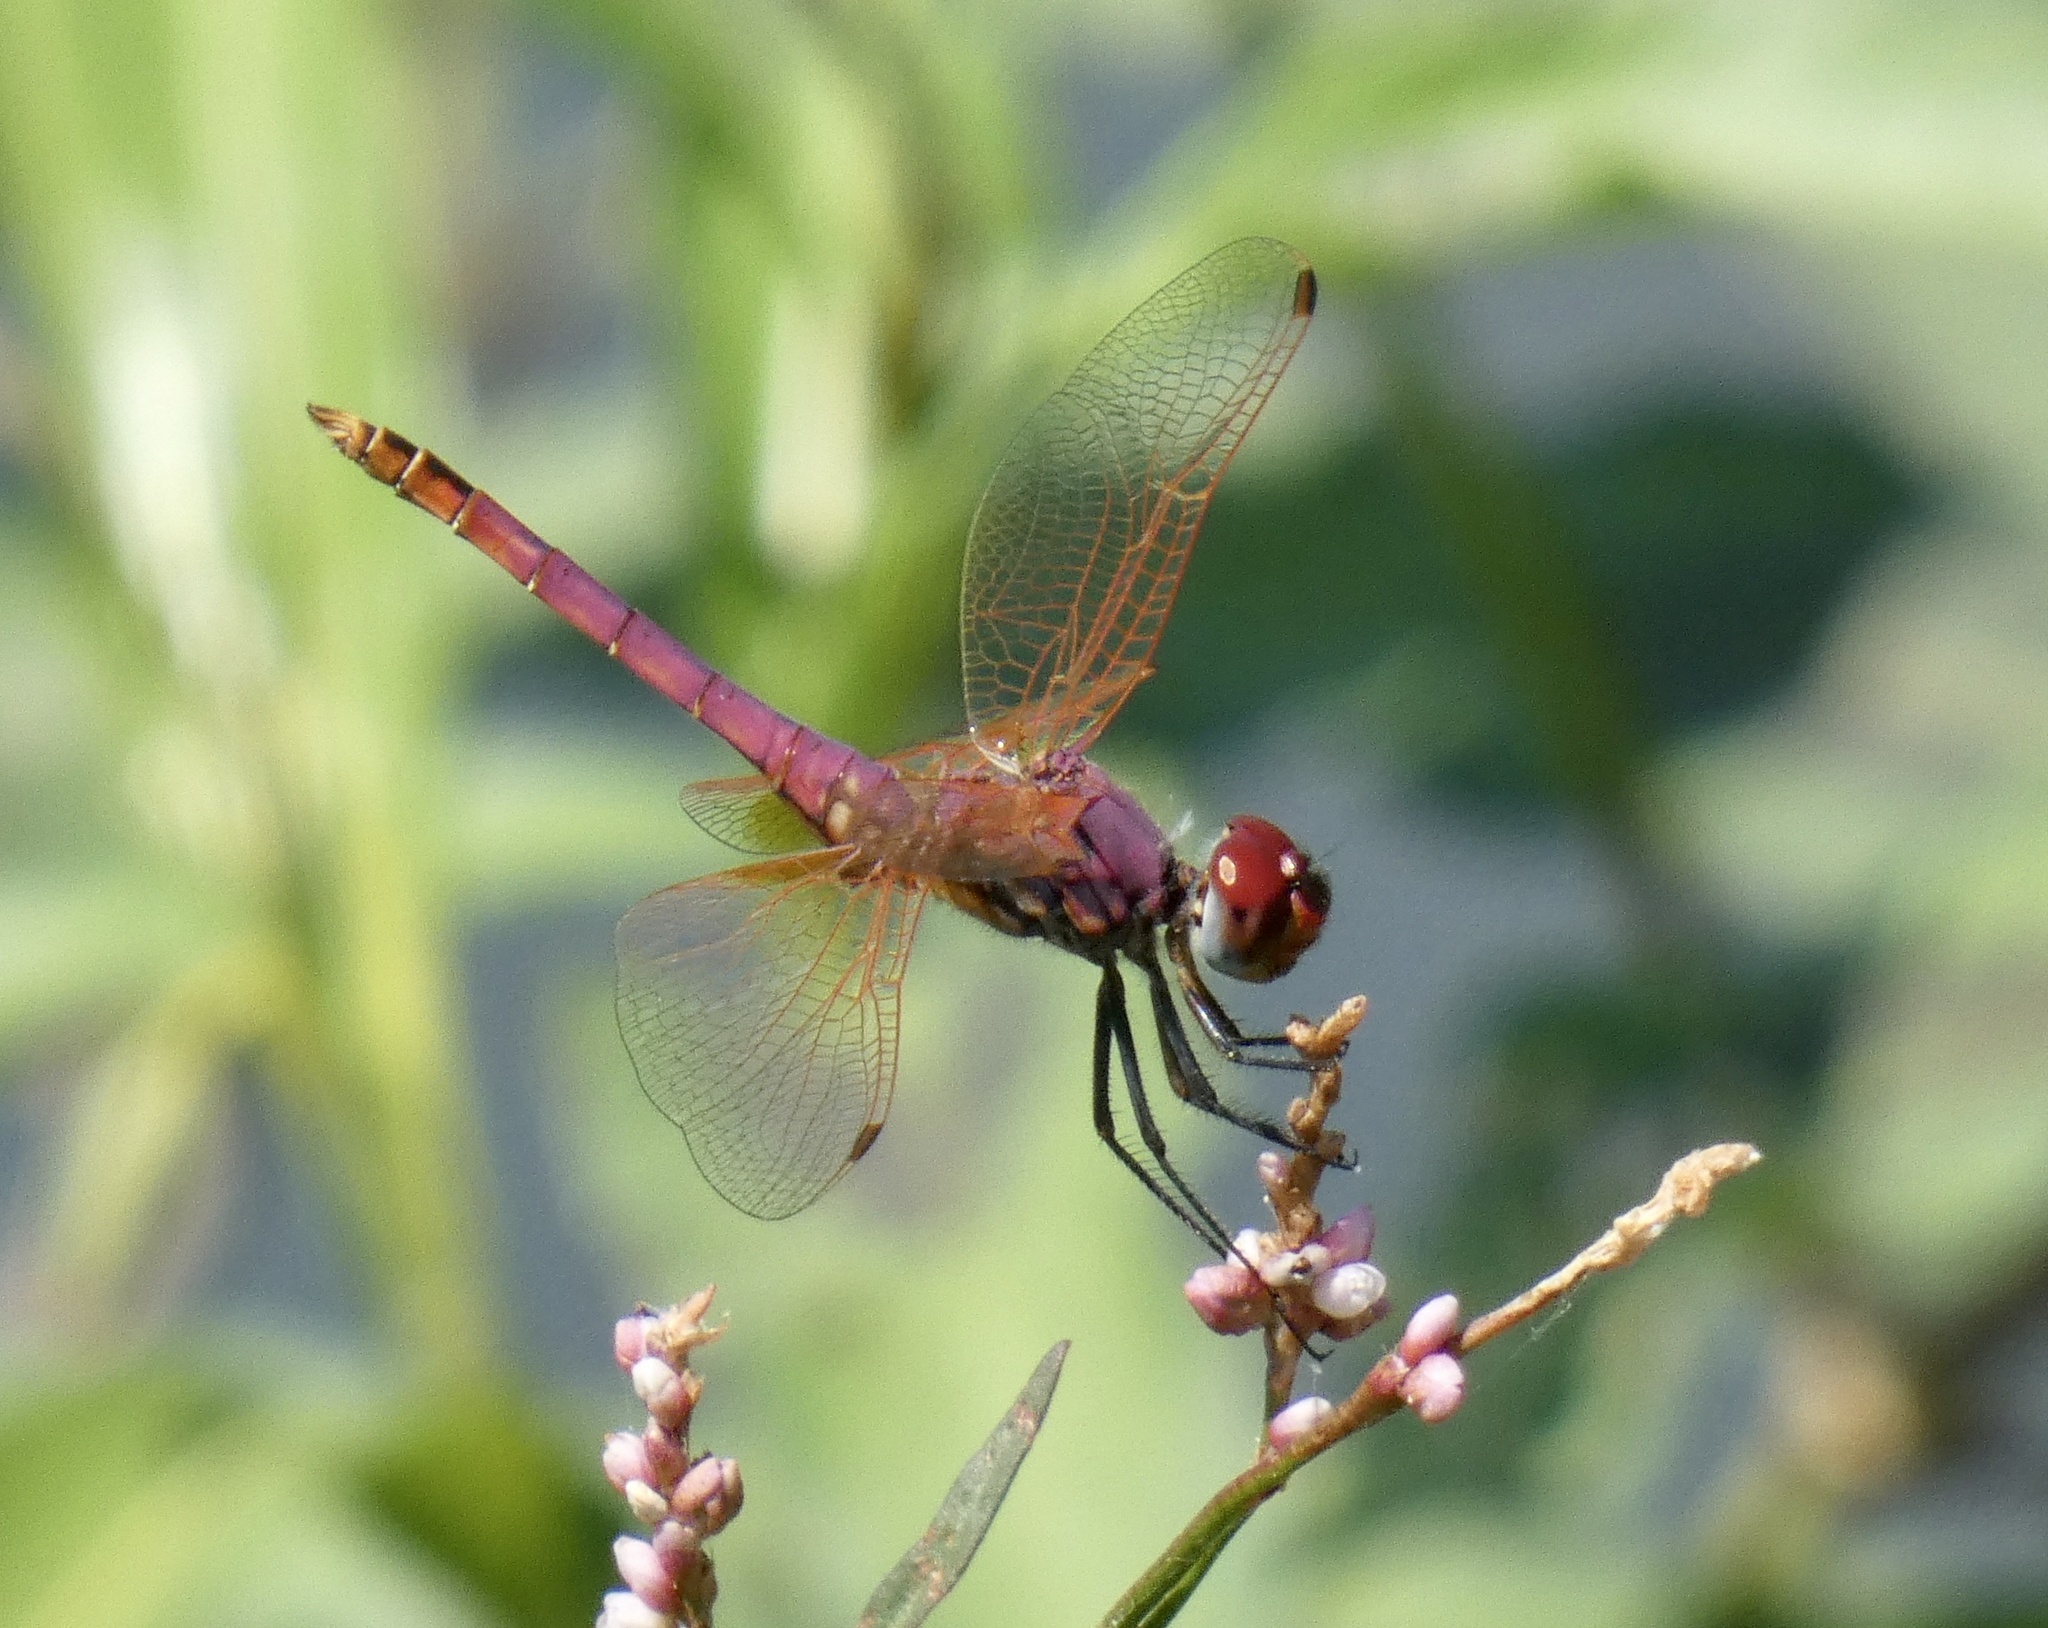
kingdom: Animalia
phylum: Arthropoda
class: Insecta
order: Odonata
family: Libellulidae
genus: Trithemis
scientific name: Trithemis annulata
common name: Violet dropwing
